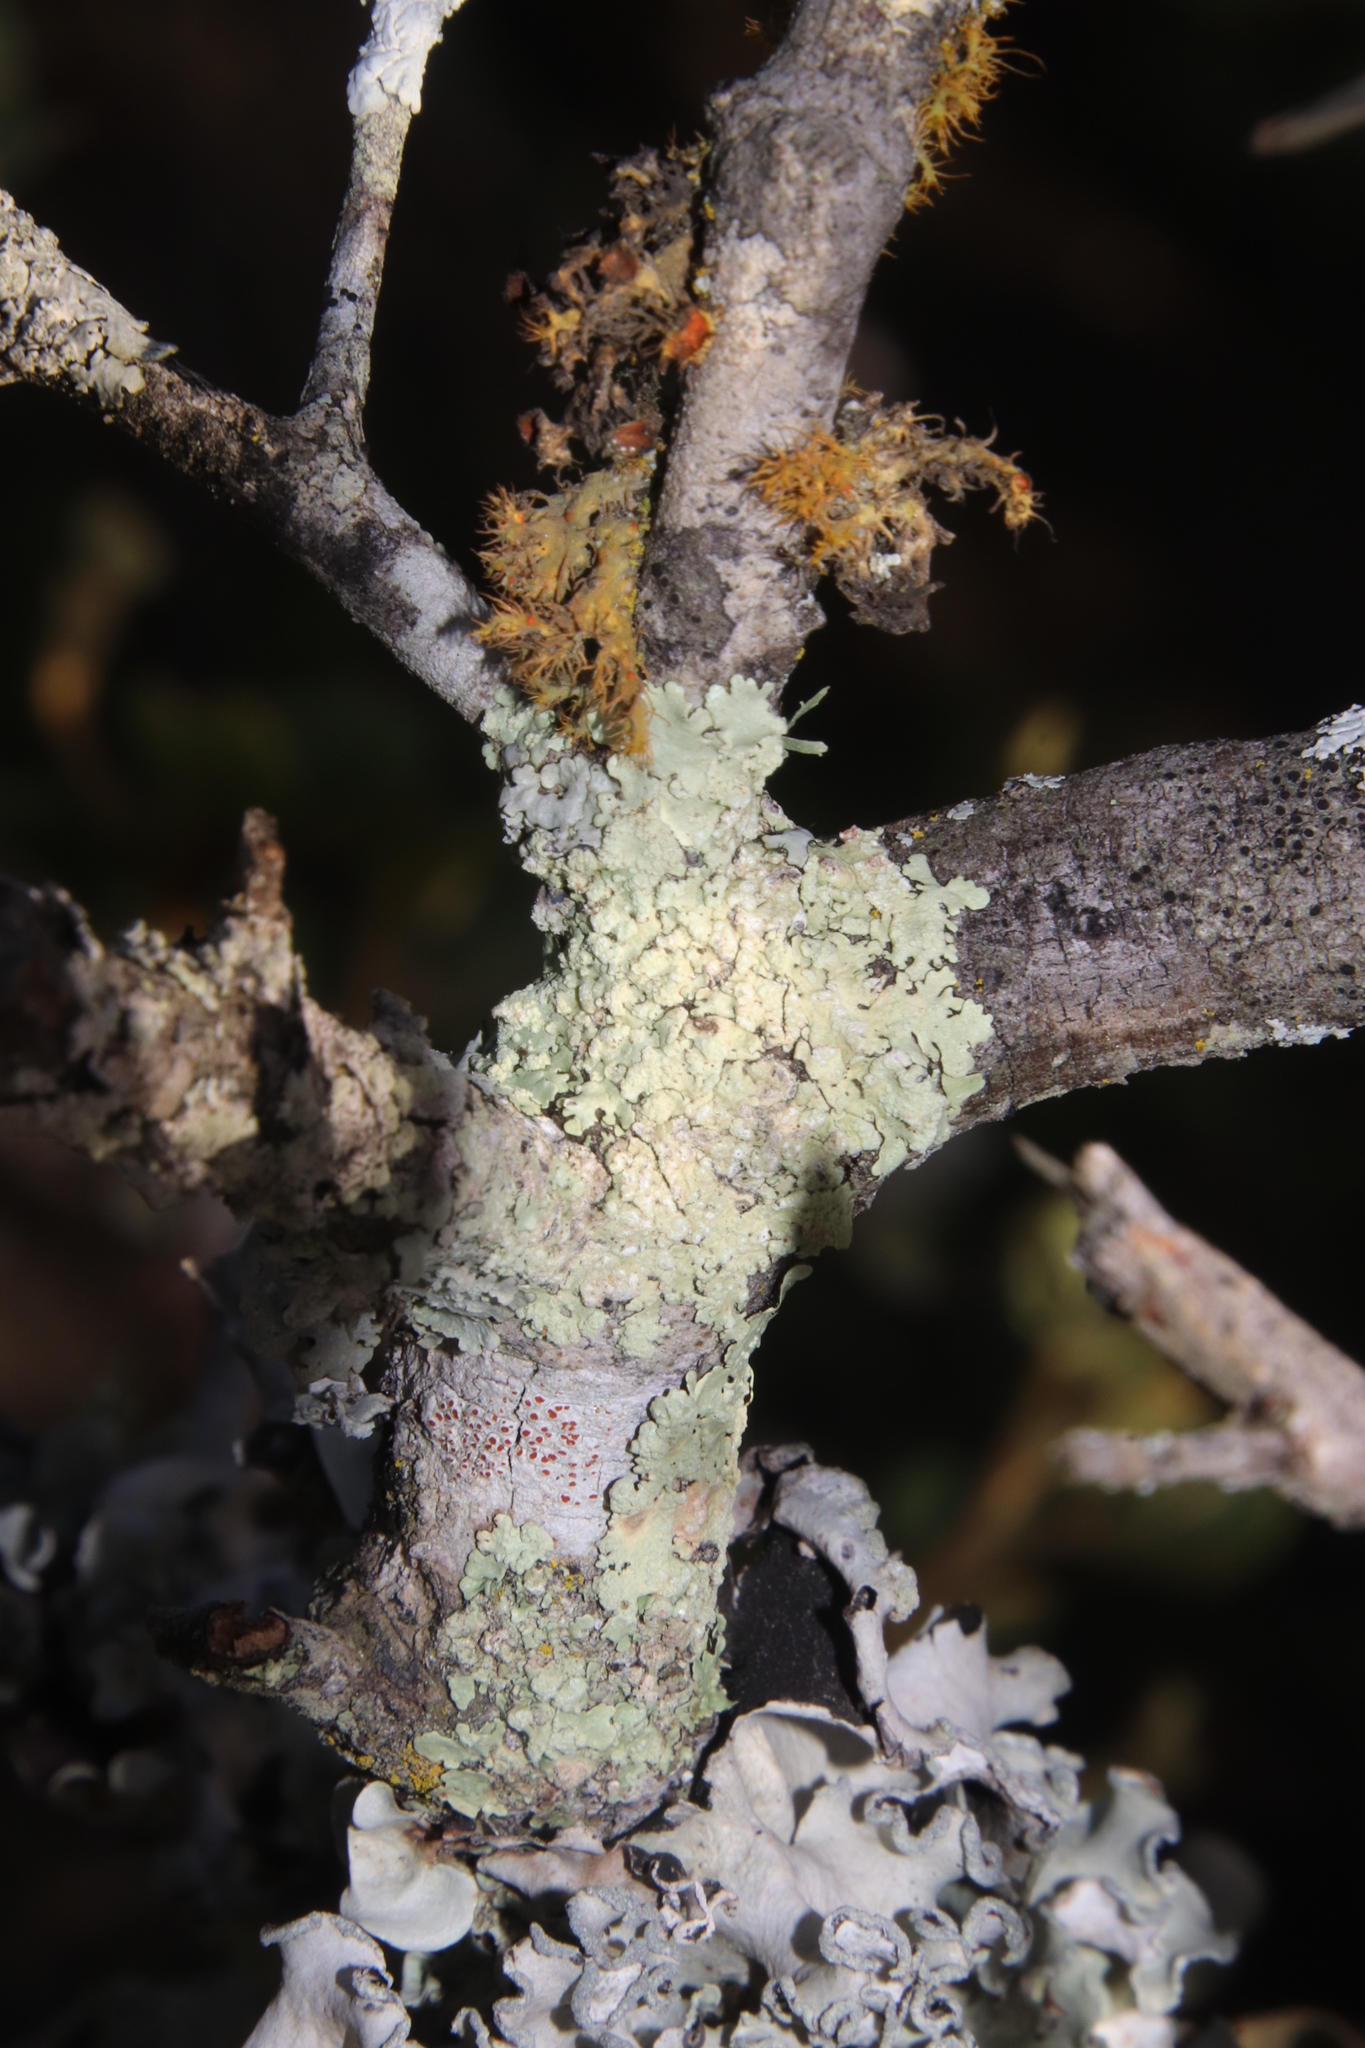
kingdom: Fungi
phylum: Ascomycota
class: Lecanoromycetes
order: Lecanorales
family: Parmeliaceae
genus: Flavoparmelia
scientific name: Flavoparmelia soredians
